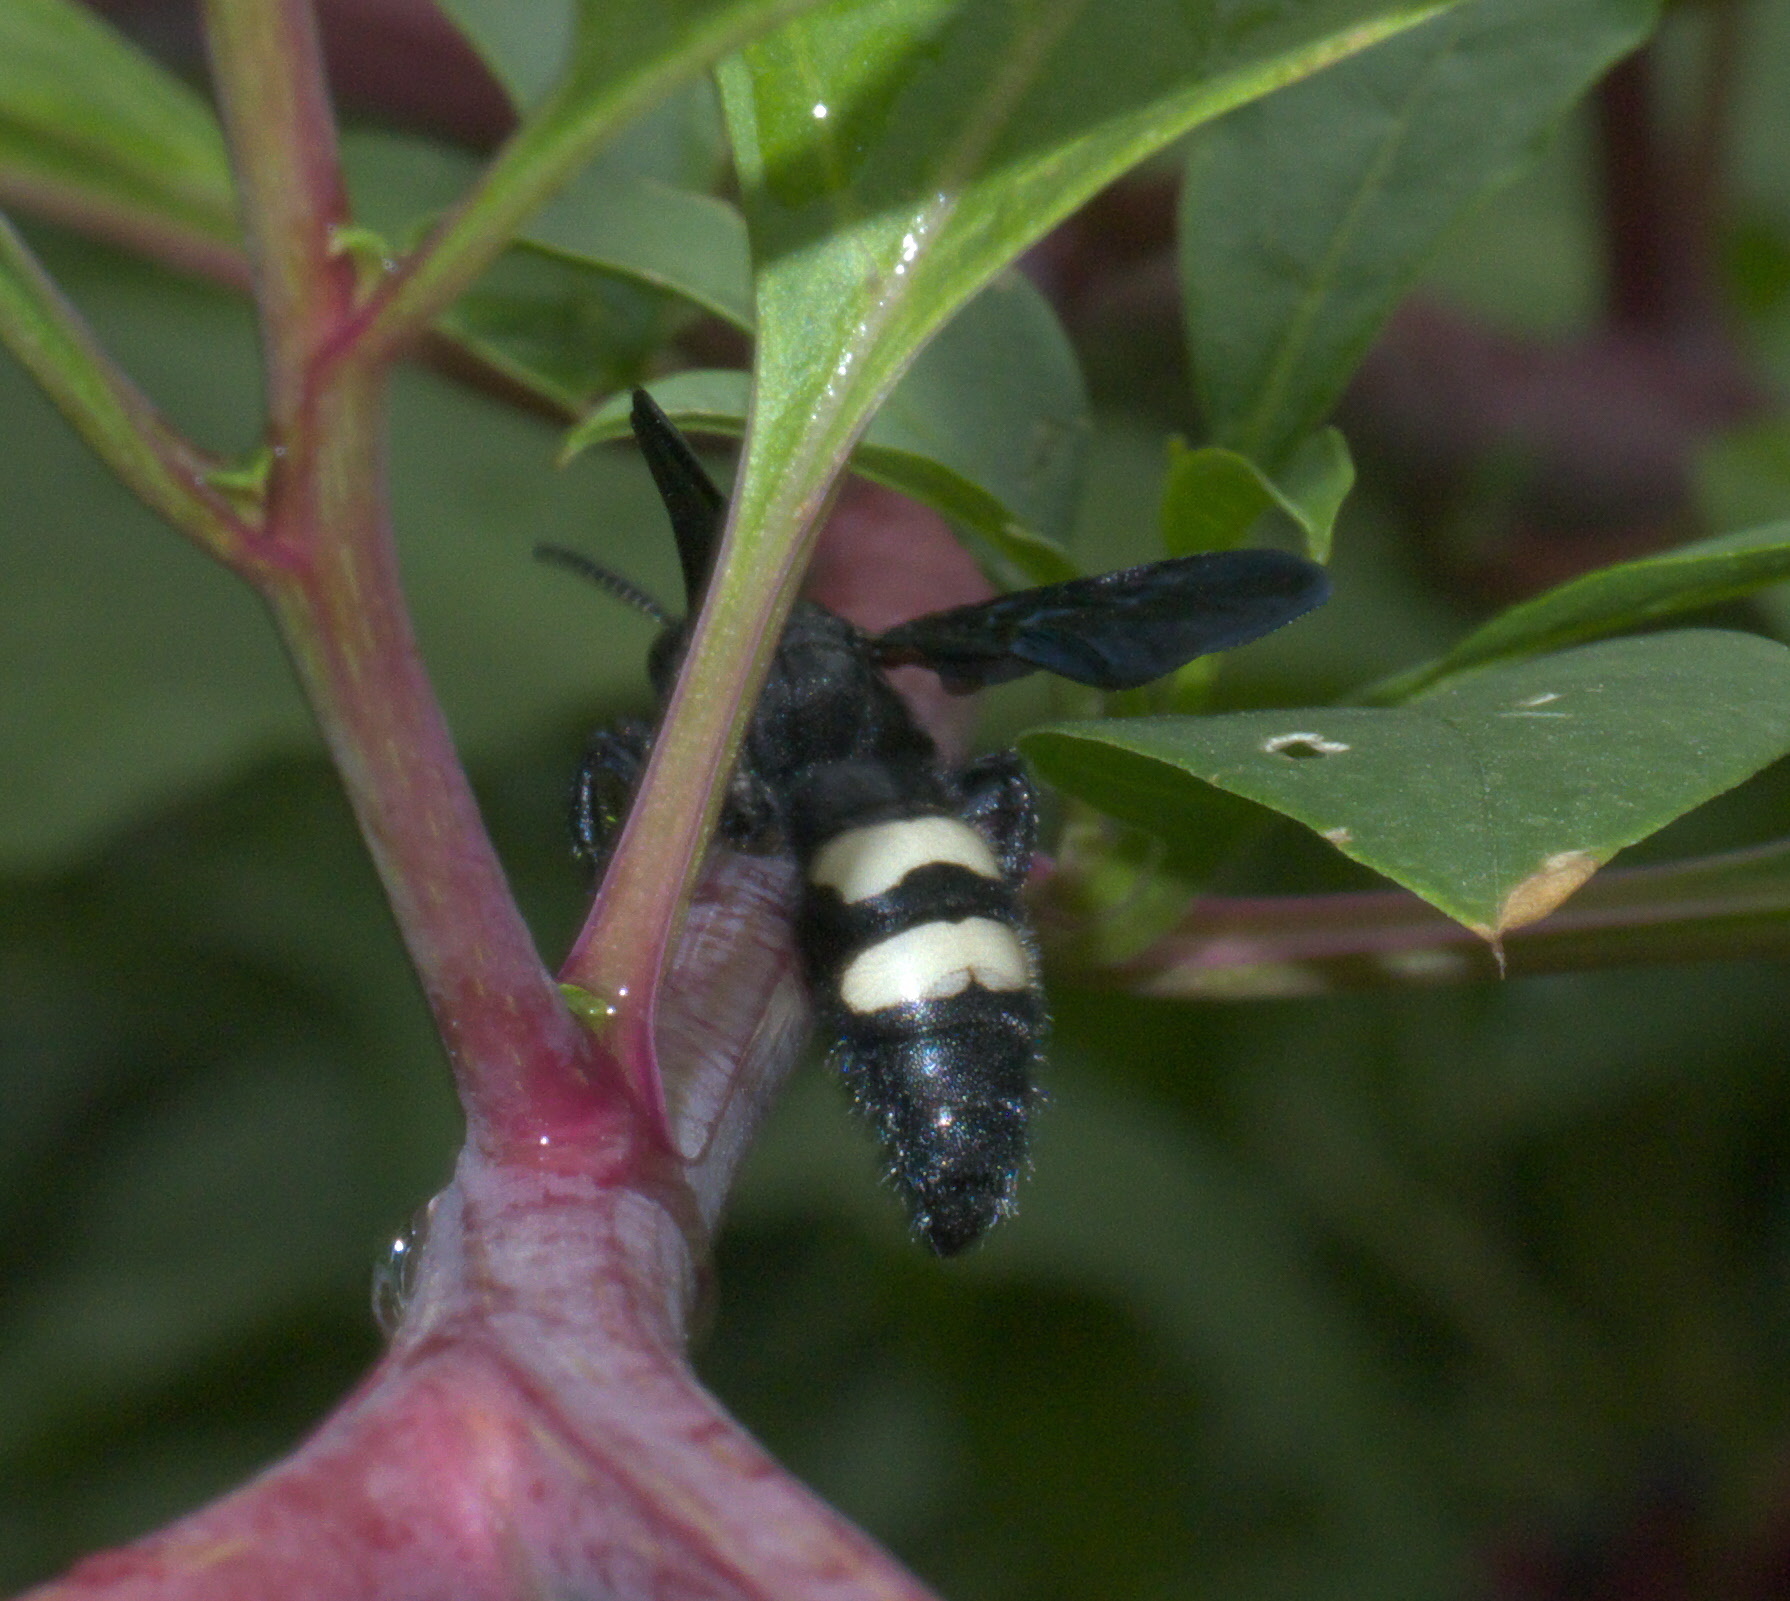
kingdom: Animalia
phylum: Arthropoda
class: Insecta
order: Hymenoptera
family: Scoliidae
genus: Scolia
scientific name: Scolia bicincta
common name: Double-banded scoliid wasp
